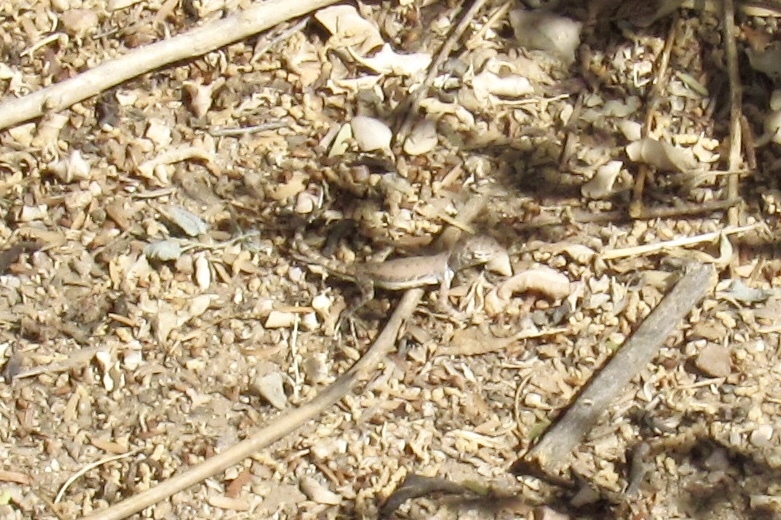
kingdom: Animalia
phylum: Chordata
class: Squamata
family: Phrynosomatidae
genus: Callisaurus
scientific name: Callisaurus draconoides
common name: Zebra-tailed lizard
